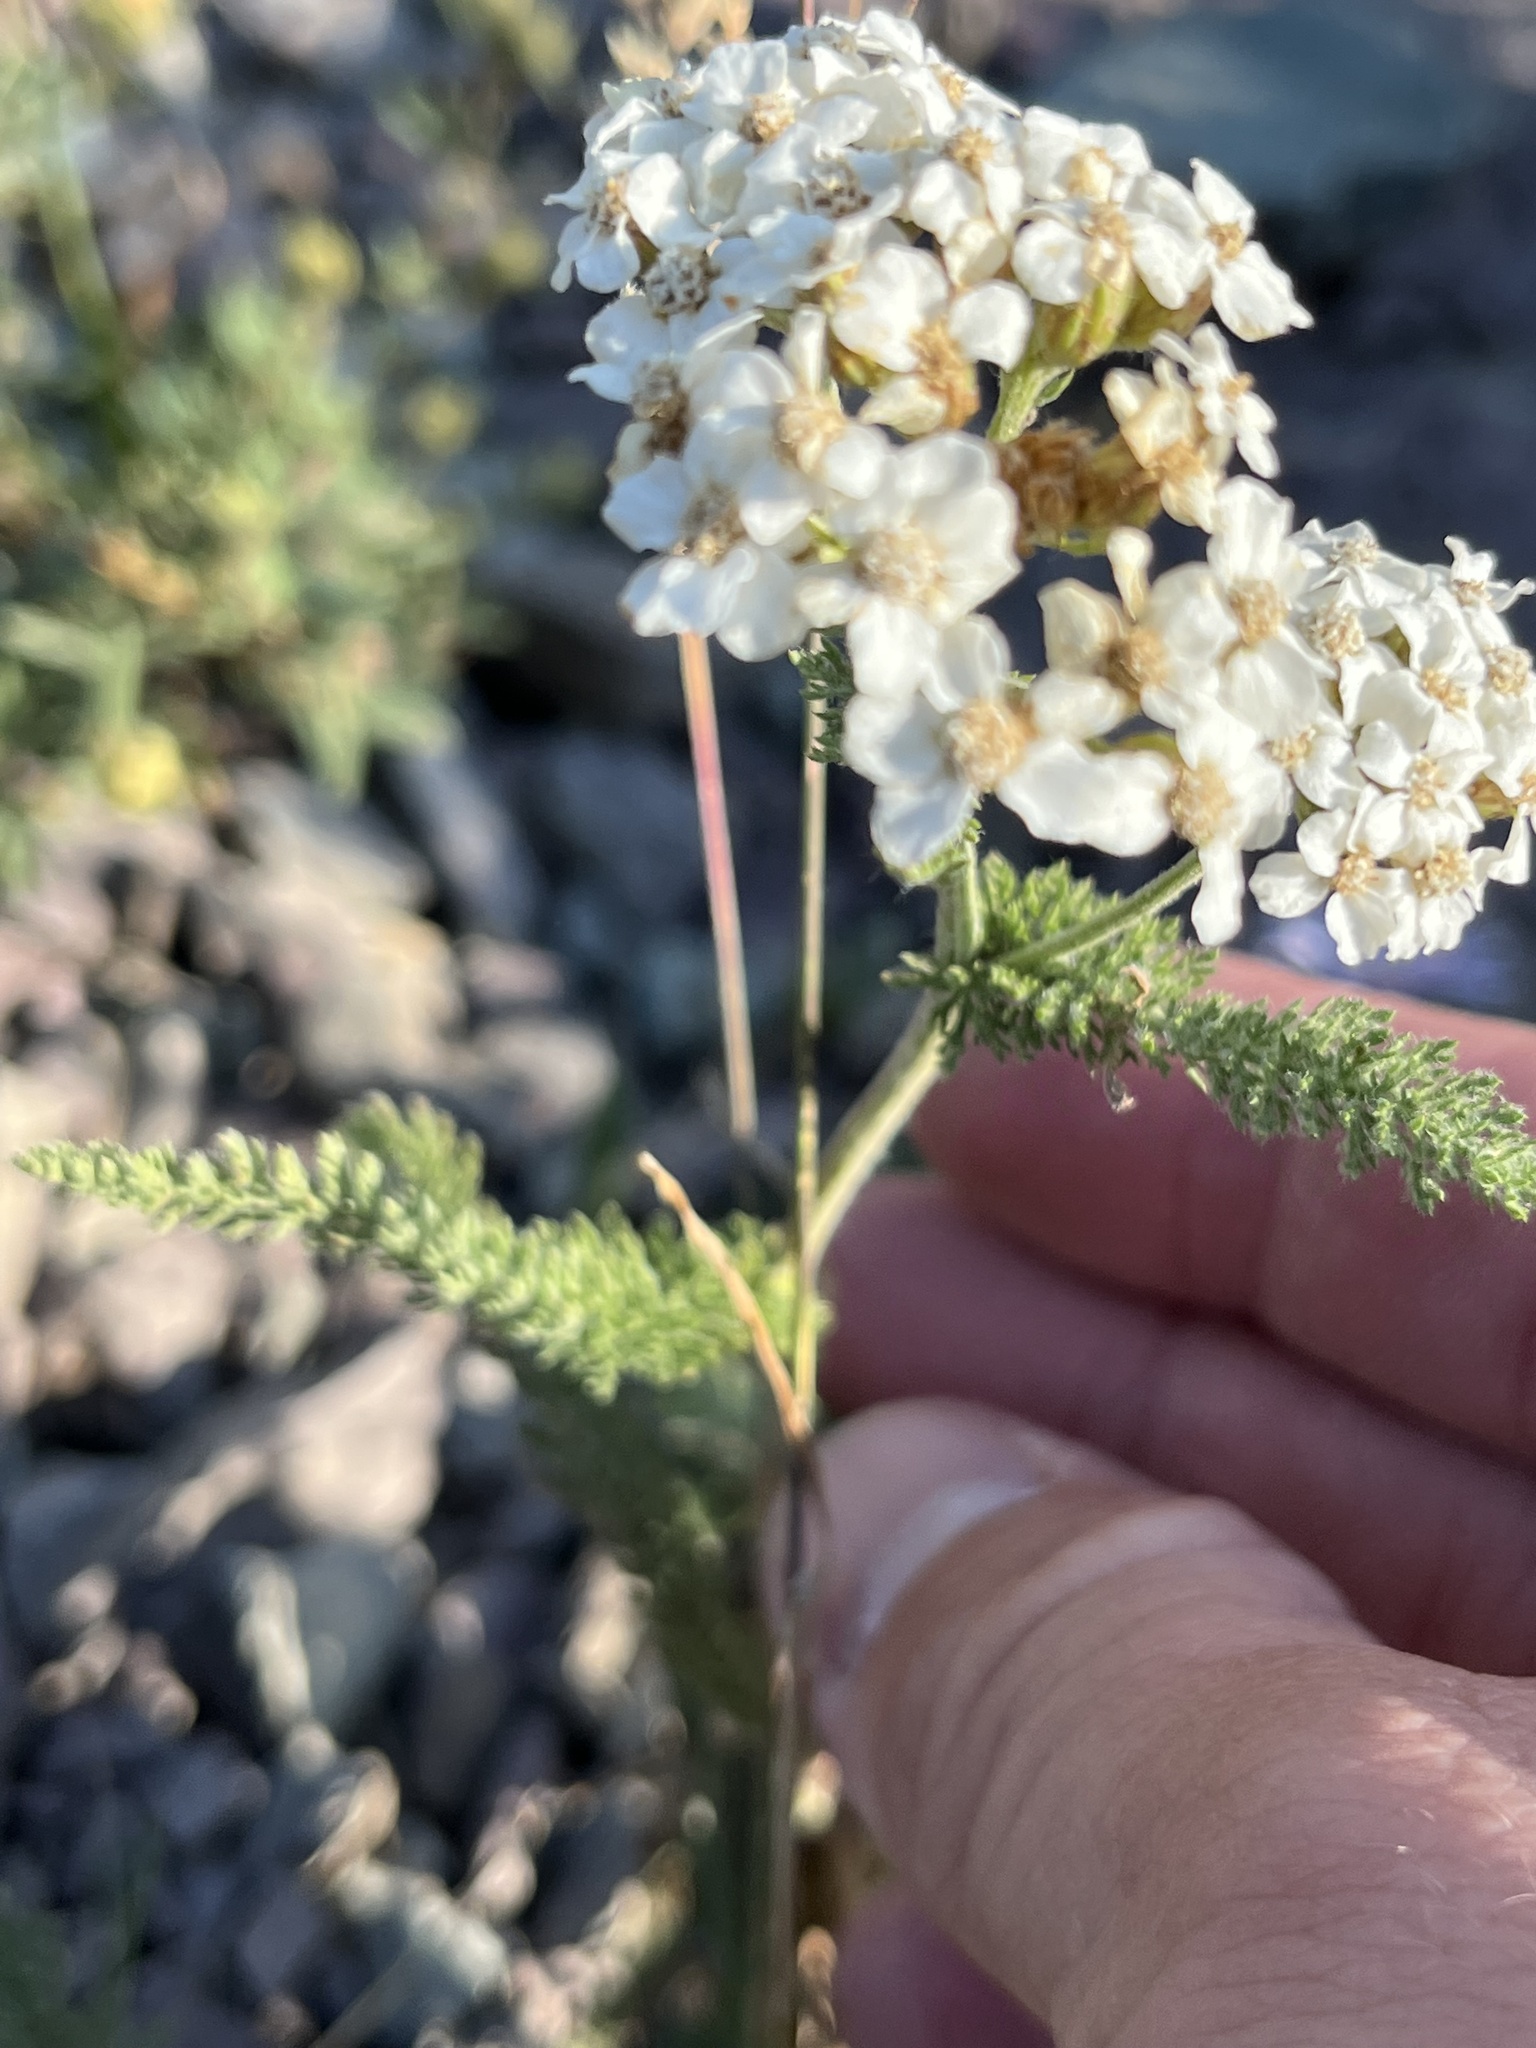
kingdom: Plantae
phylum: Tracheophyta
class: Magnoliopsida
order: Asterales
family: Asteraceae
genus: Achillea
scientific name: Achillea millefolium
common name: Yarrow
